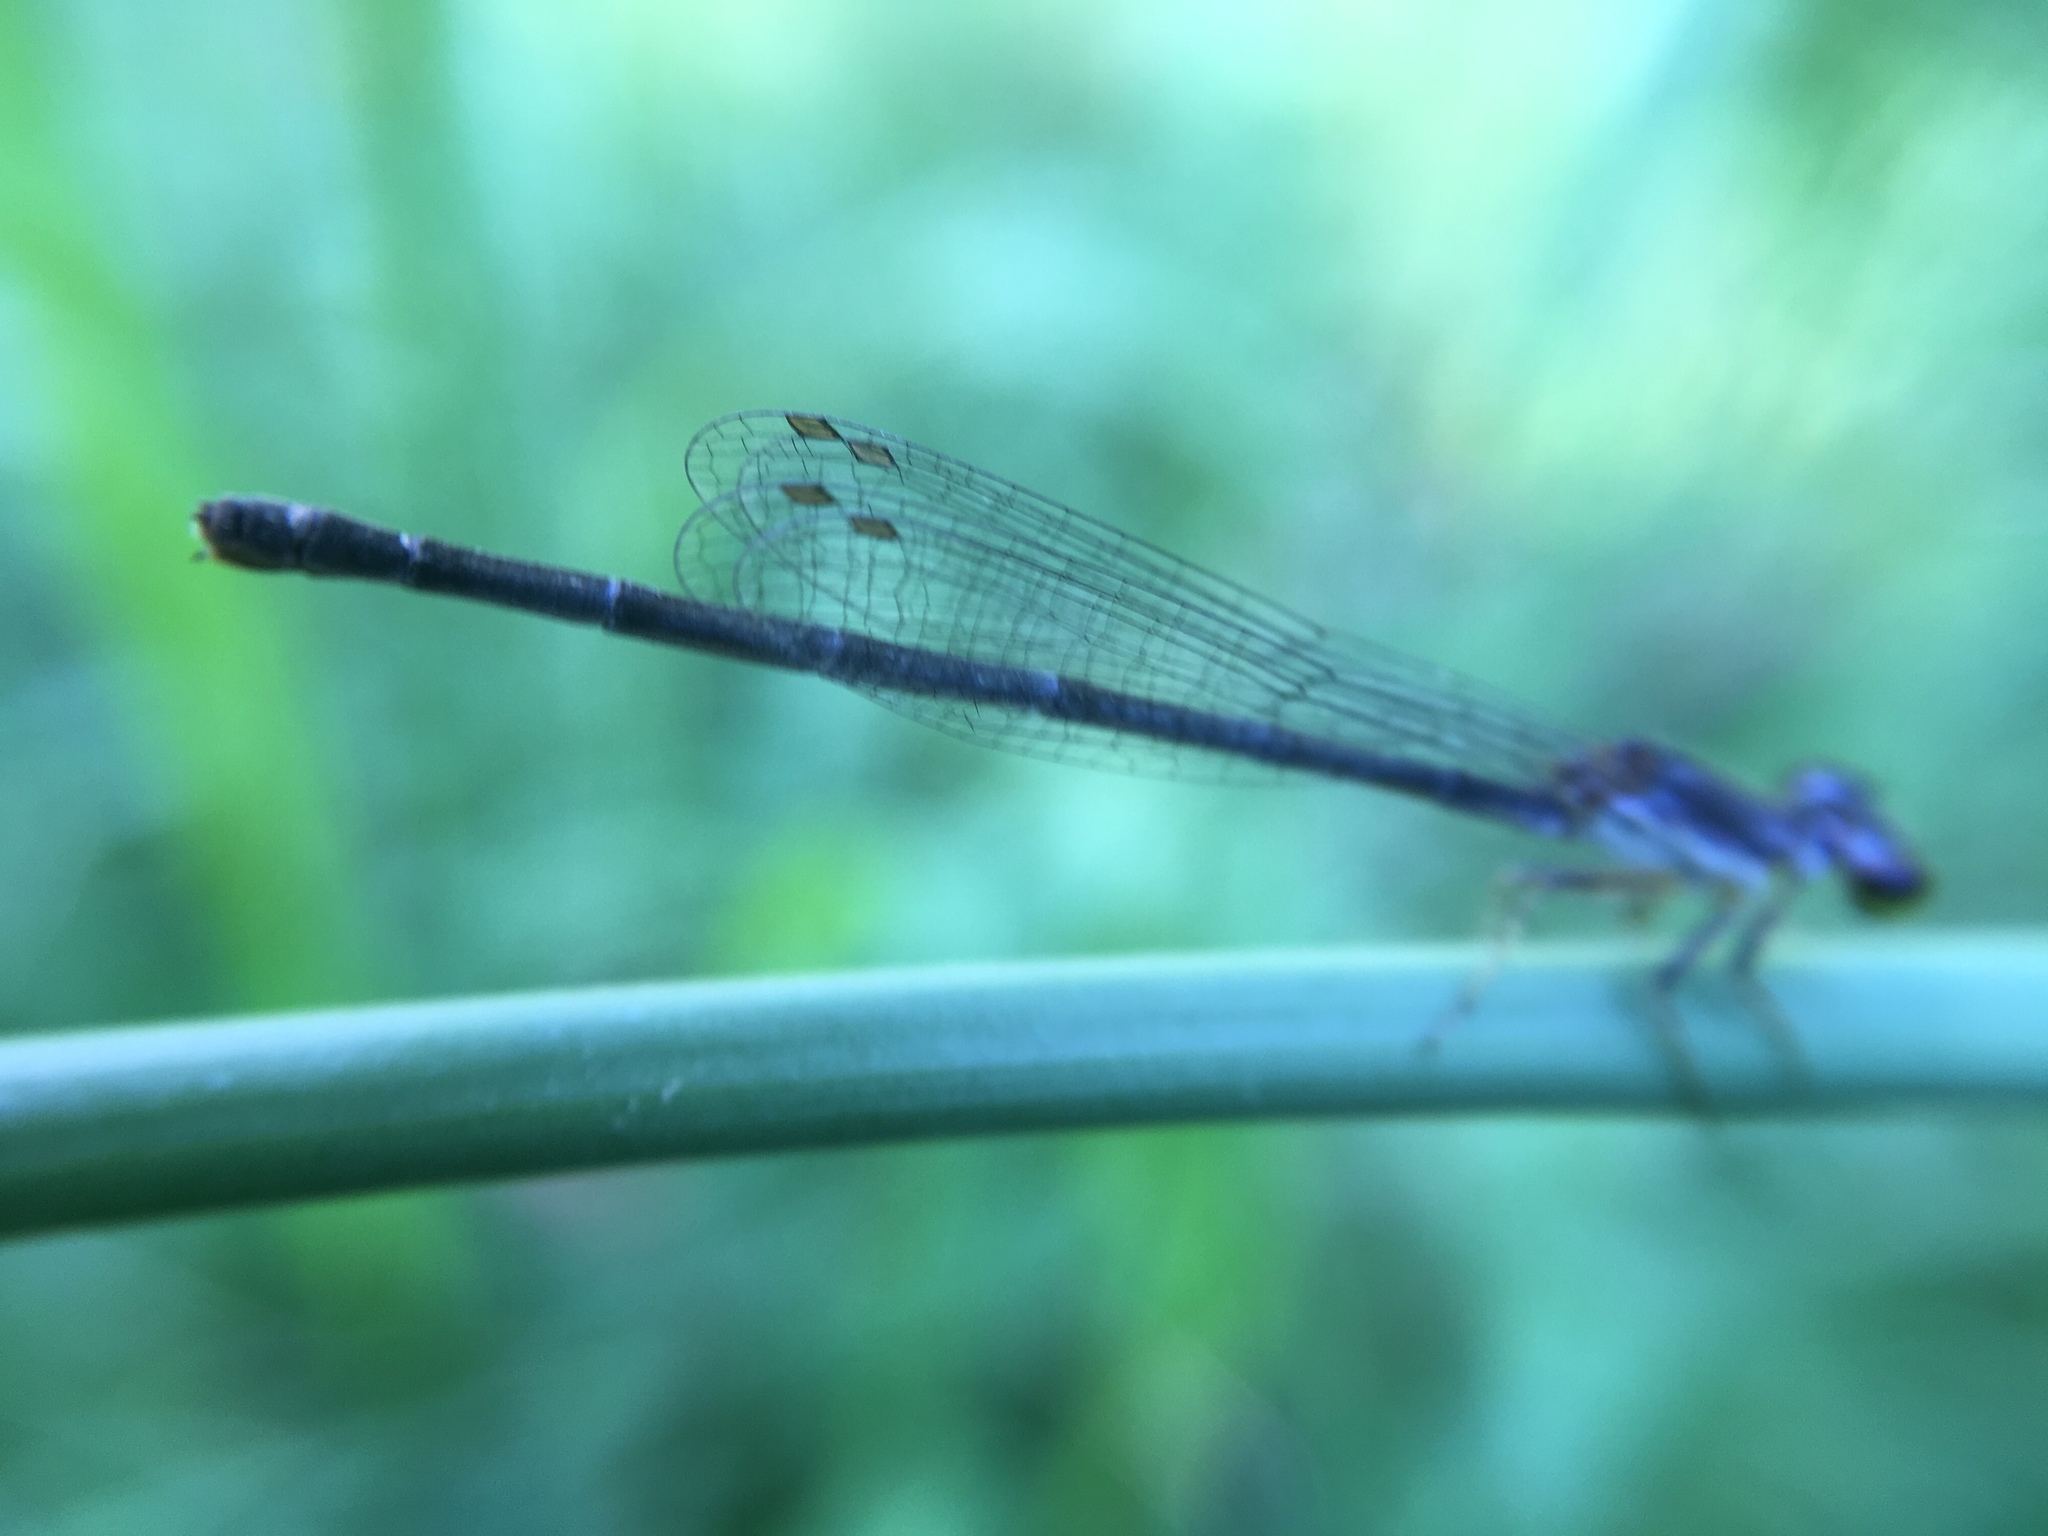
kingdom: Animalia
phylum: Arthropoda
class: Insecta
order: Odonata
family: Coenagrionidae
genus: Ischnura
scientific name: Ischnura posita
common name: Fragile forktail
